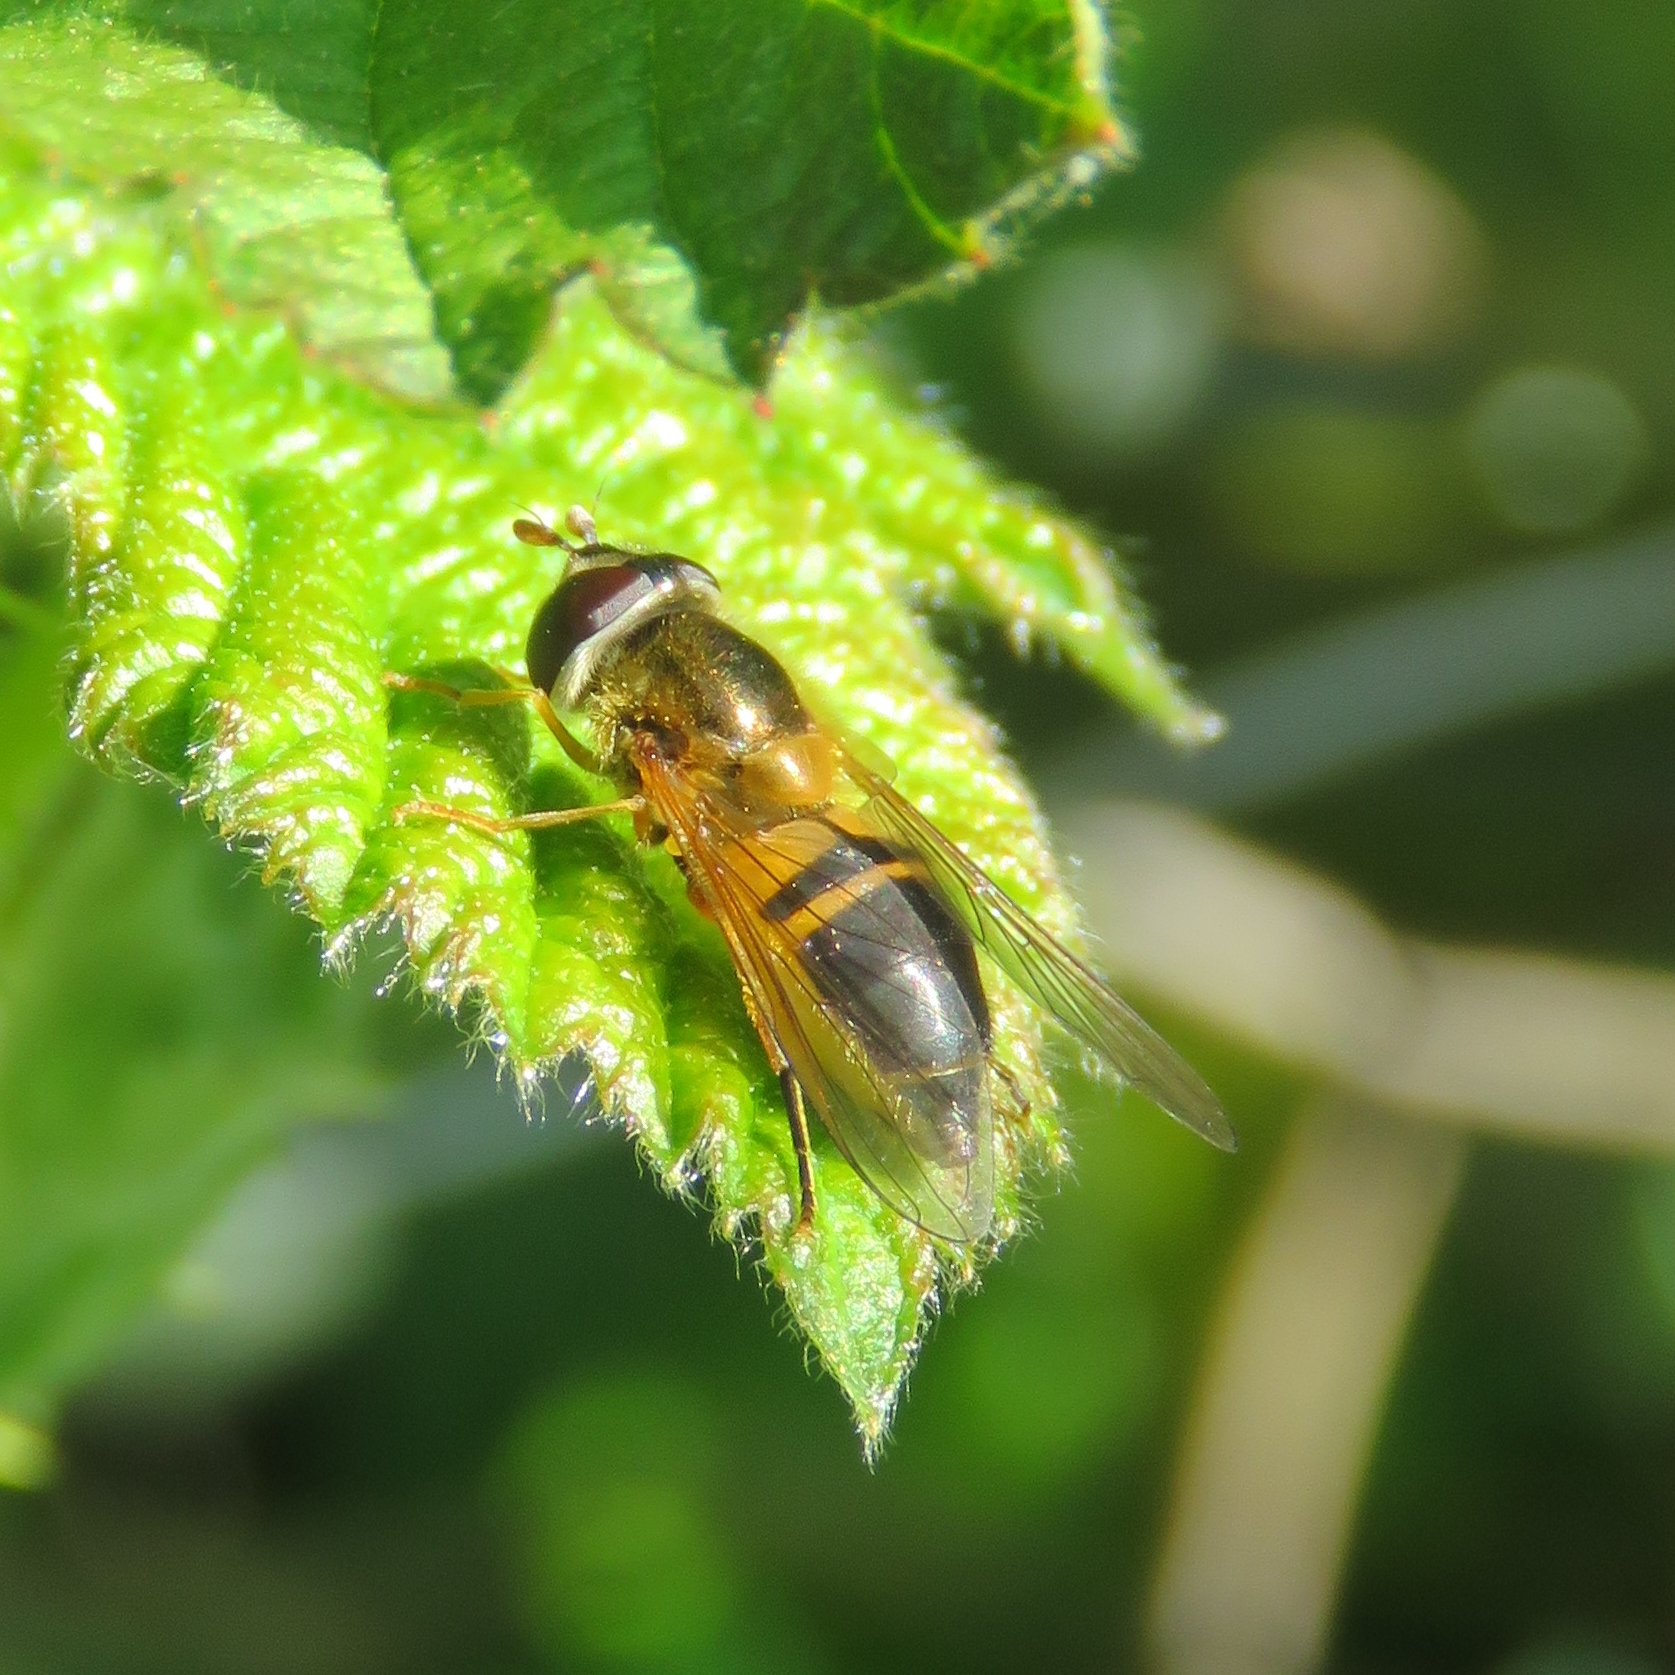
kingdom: Animalia
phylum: Arthropoda
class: Insecta
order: Diptera
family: Syrphidae
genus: Epistrophe
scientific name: Epistrophe eligans
